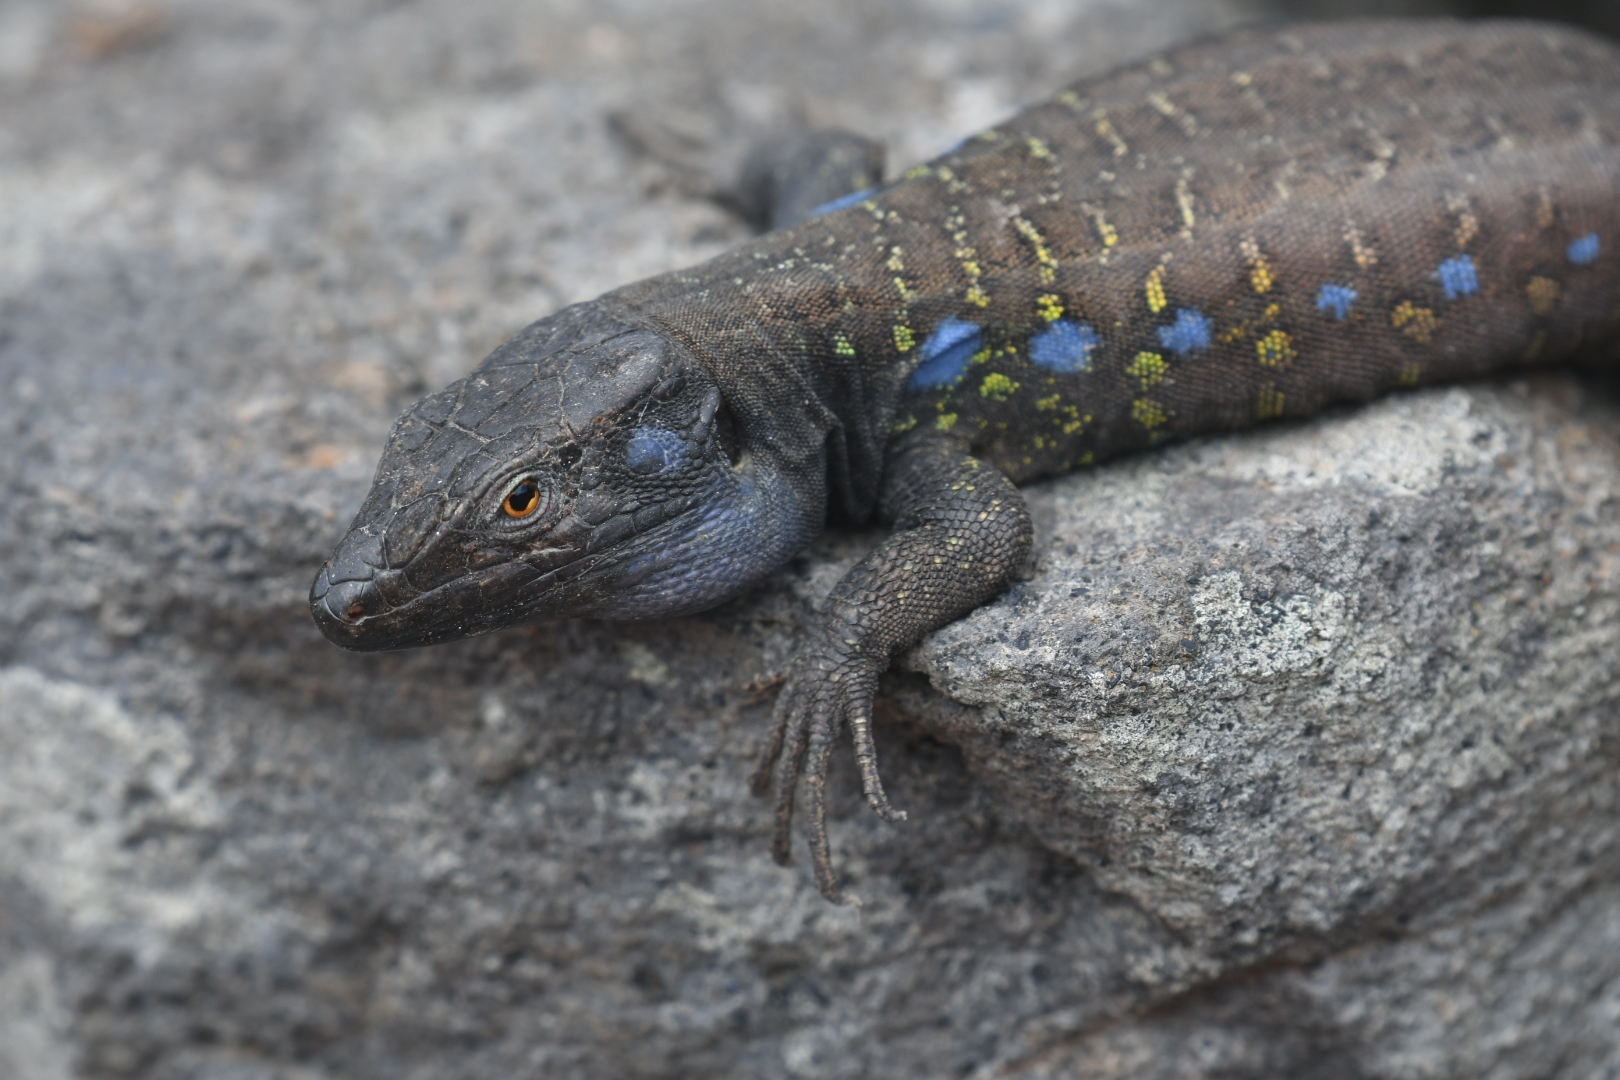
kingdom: Animalia
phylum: Chordata
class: Squamata
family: Lacertidae
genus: Gallotia
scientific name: Gallotia galloti
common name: Gallot's lizard
